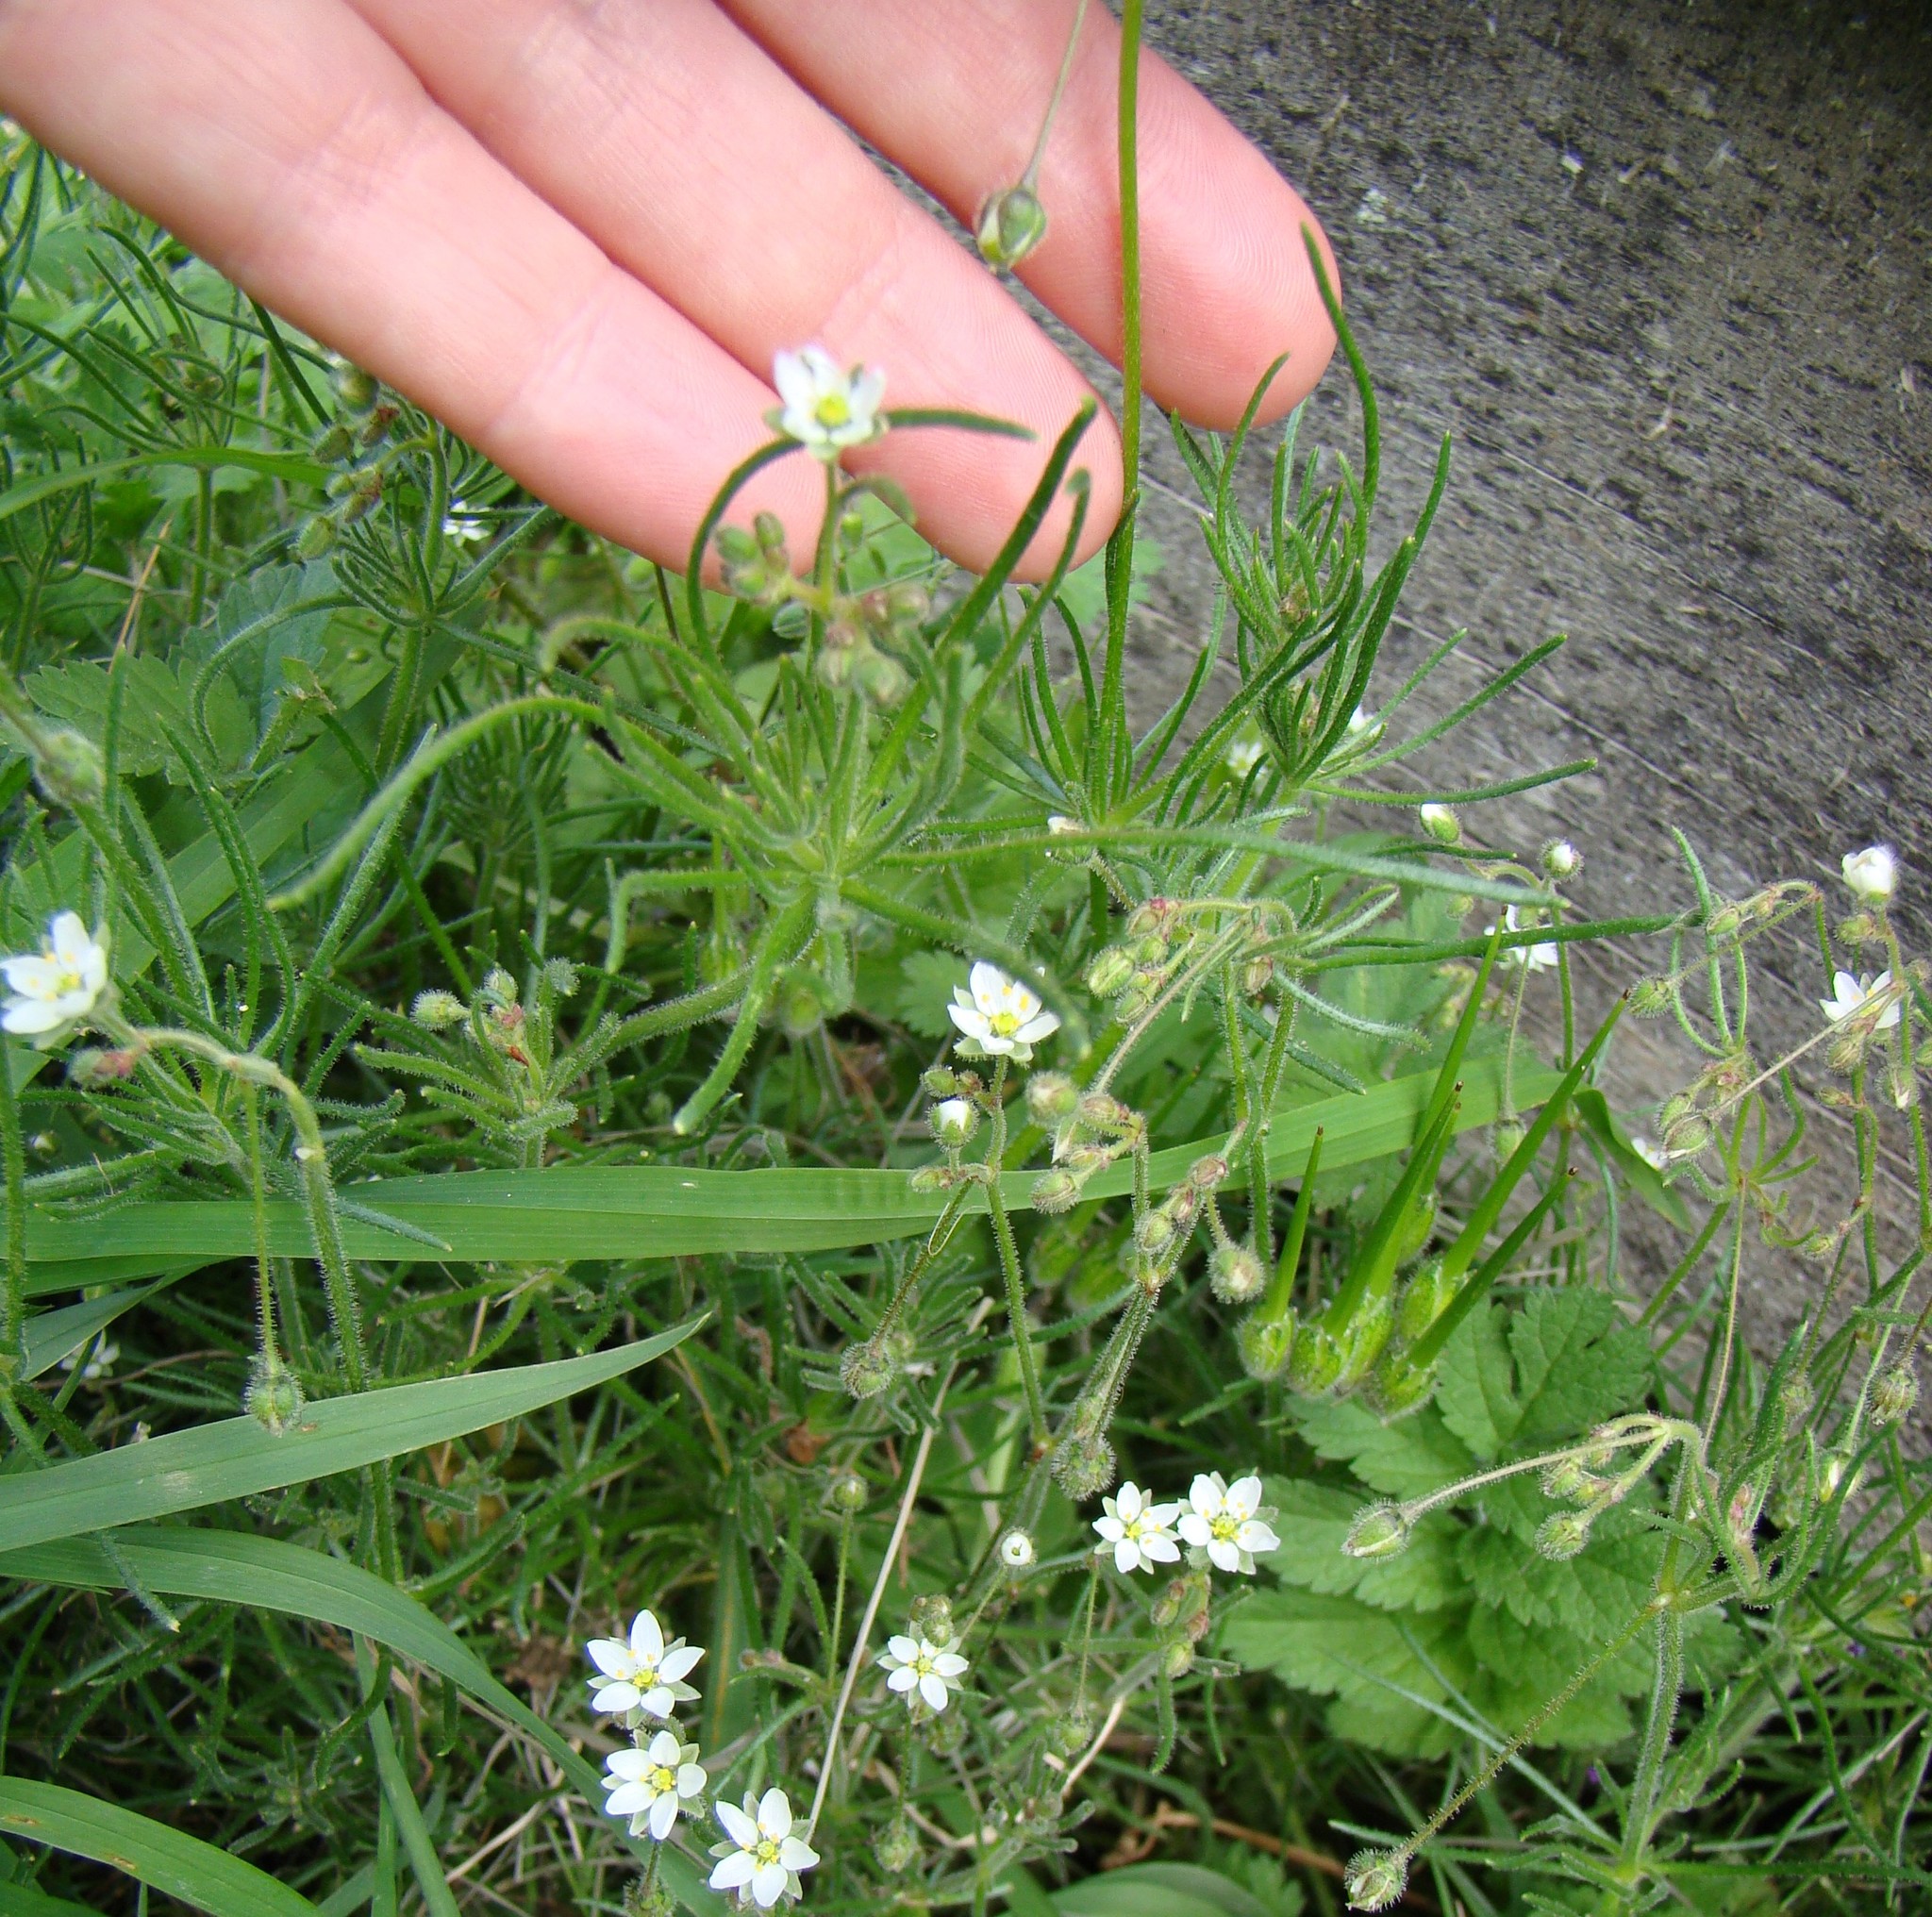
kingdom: Plantae
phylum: Tracheophyta
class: Magnoliopsida
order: Caryophyllales
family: Caryophyllaceae
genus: Spergula
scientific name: Spergula arvensis
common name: Corn spurrey
